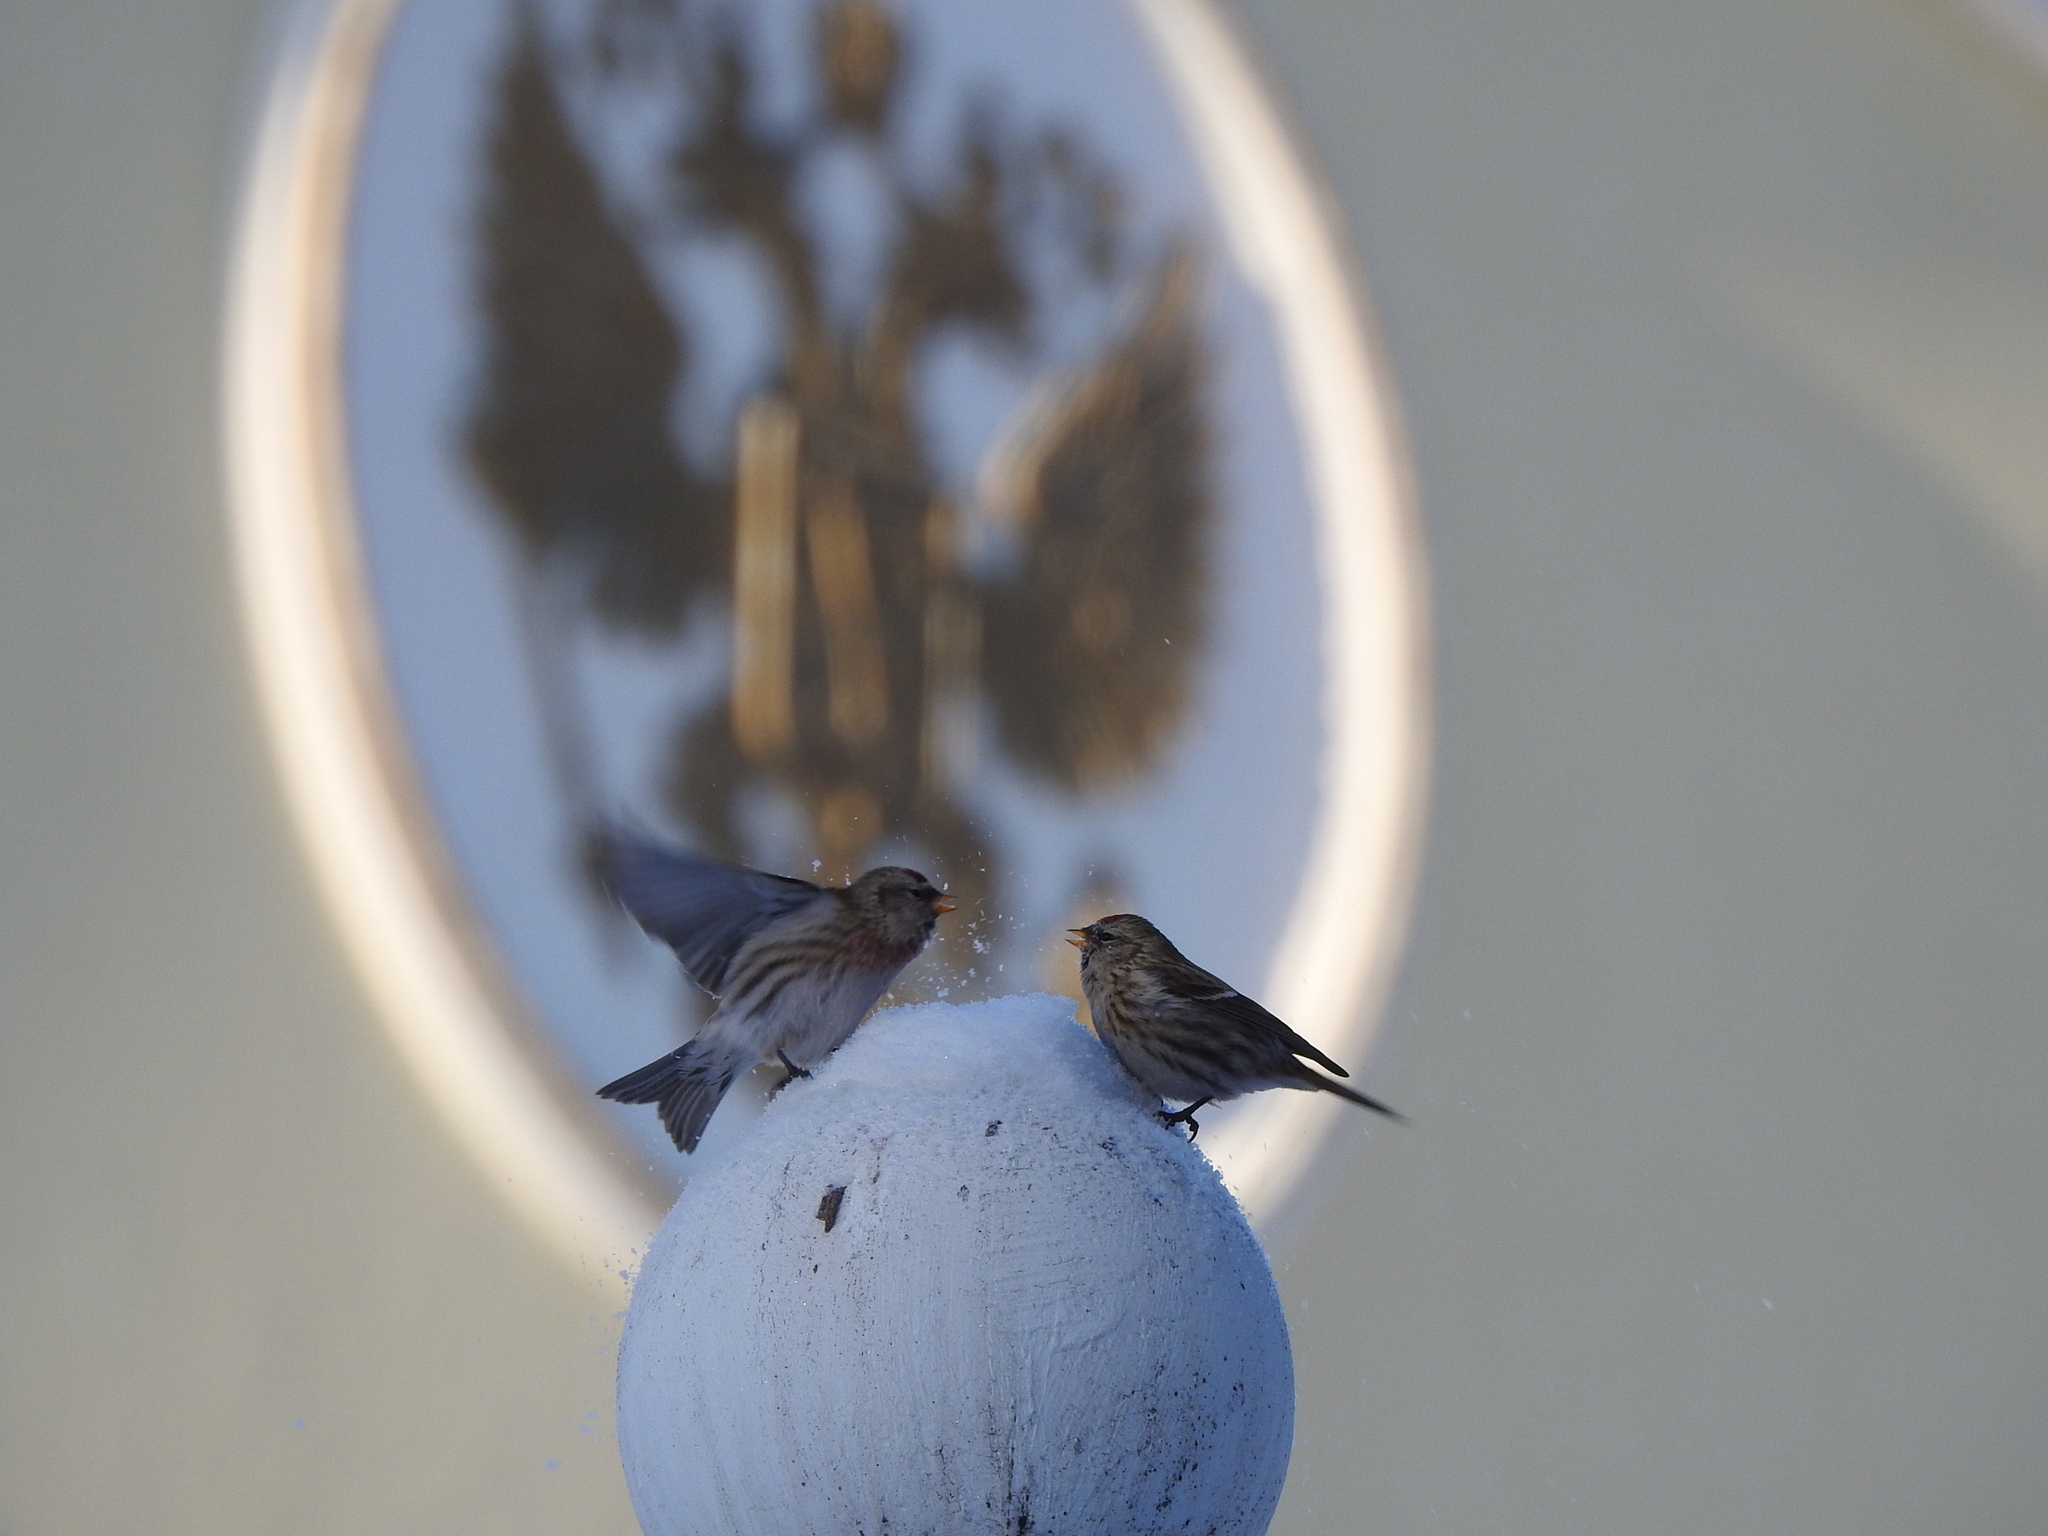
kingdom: Animalia
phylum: Chordata
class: Aves
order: Passeriformes
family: Fringillidae
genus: Acanthis
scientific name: Acanthis flammea
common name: Common redpoll
